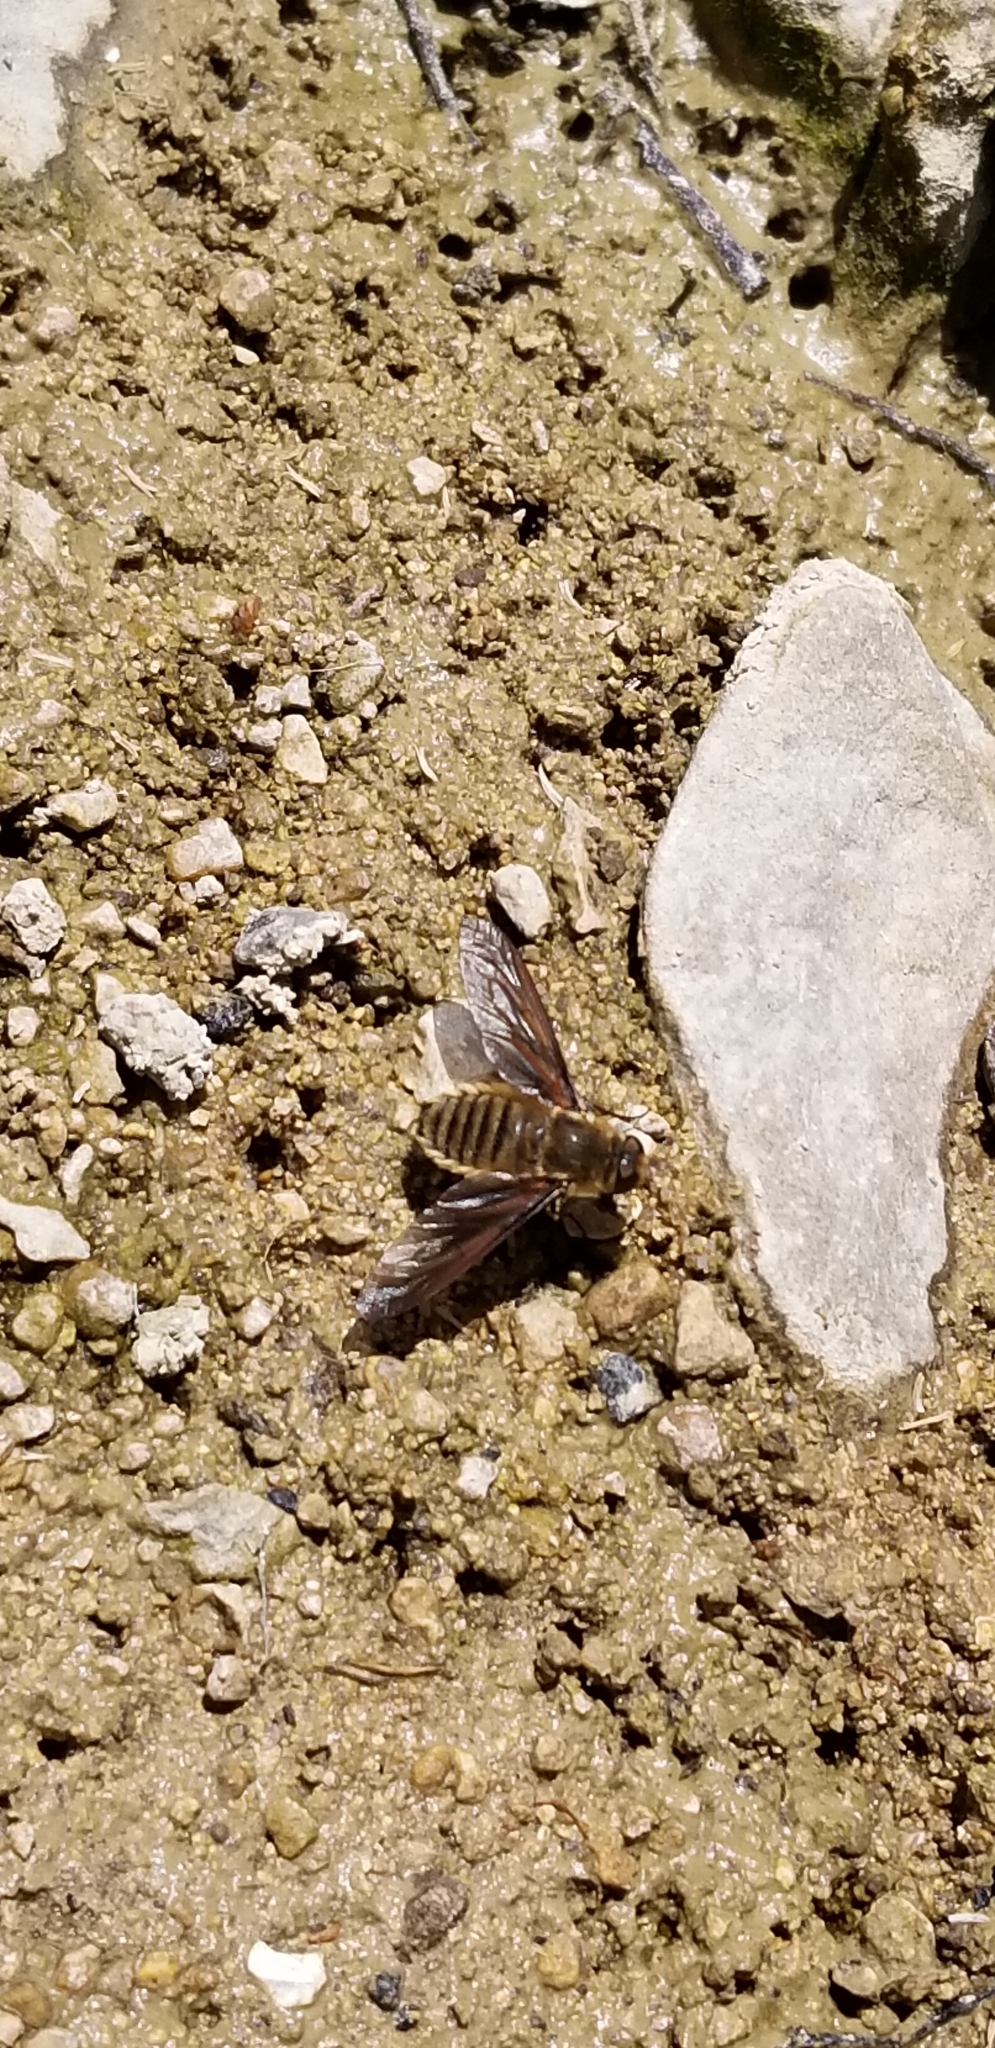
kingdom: Animalia
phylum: Arthropoda
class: Insecta
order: Diptera
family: Bombyliidae
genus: Poecilanthrax
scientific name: Poecilanthrax lucifer
